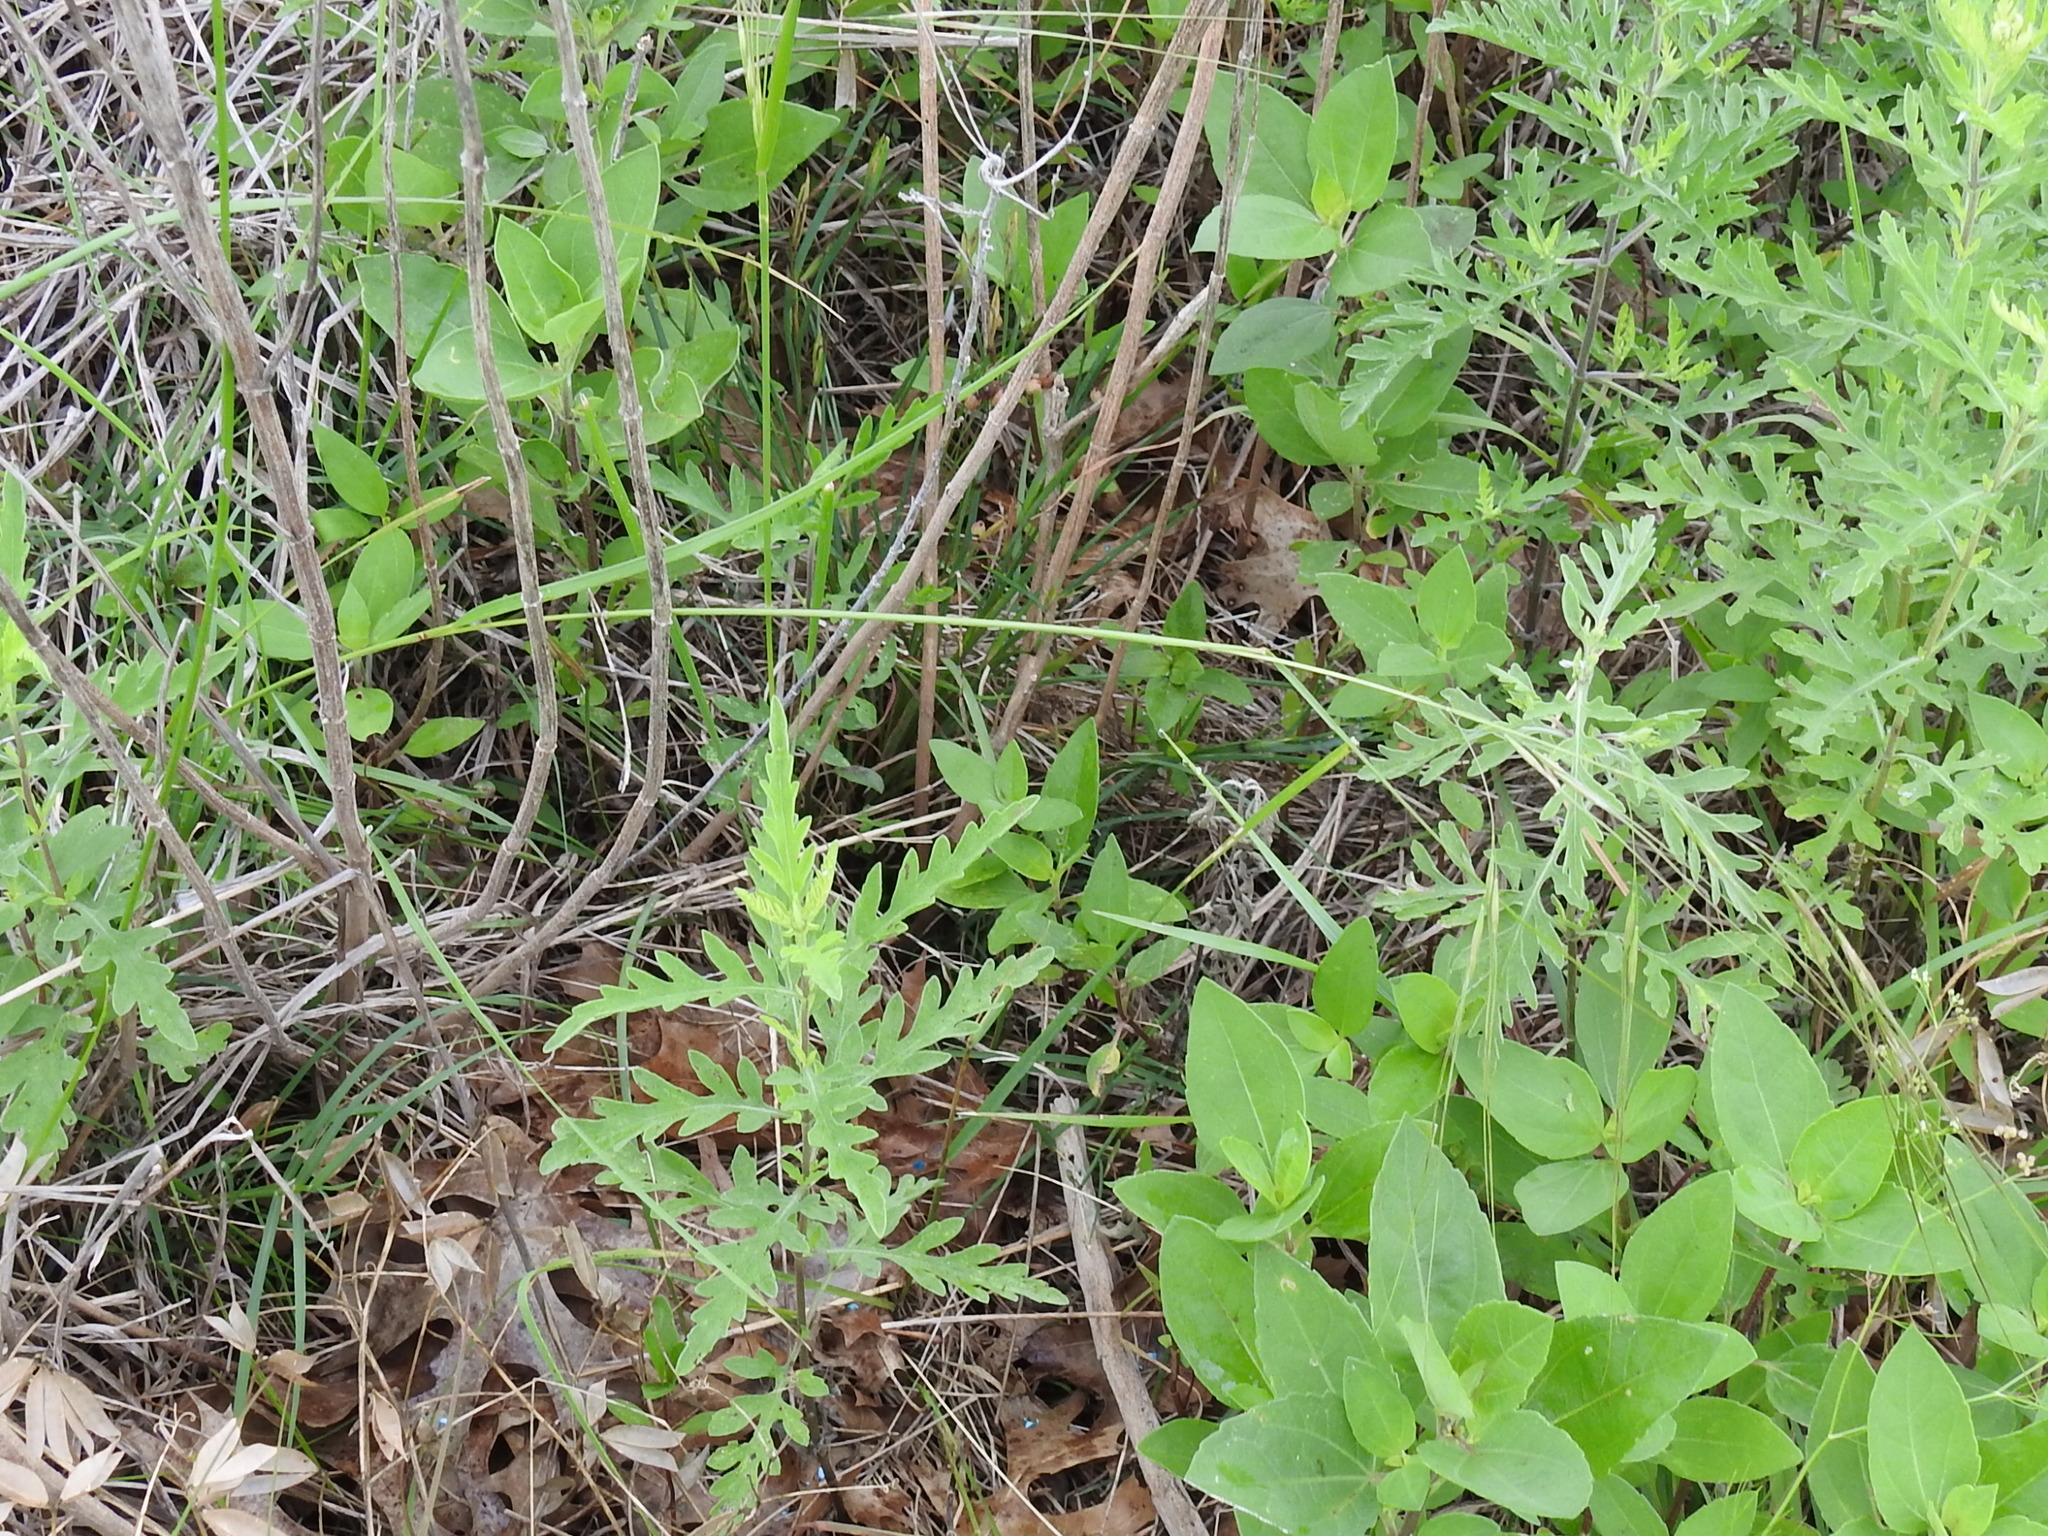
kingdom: Plantae
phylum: Tracheophyta
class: Liliopsida
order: Poales
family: Poaceae
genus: Nassella
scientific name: Nassella leucotricha
